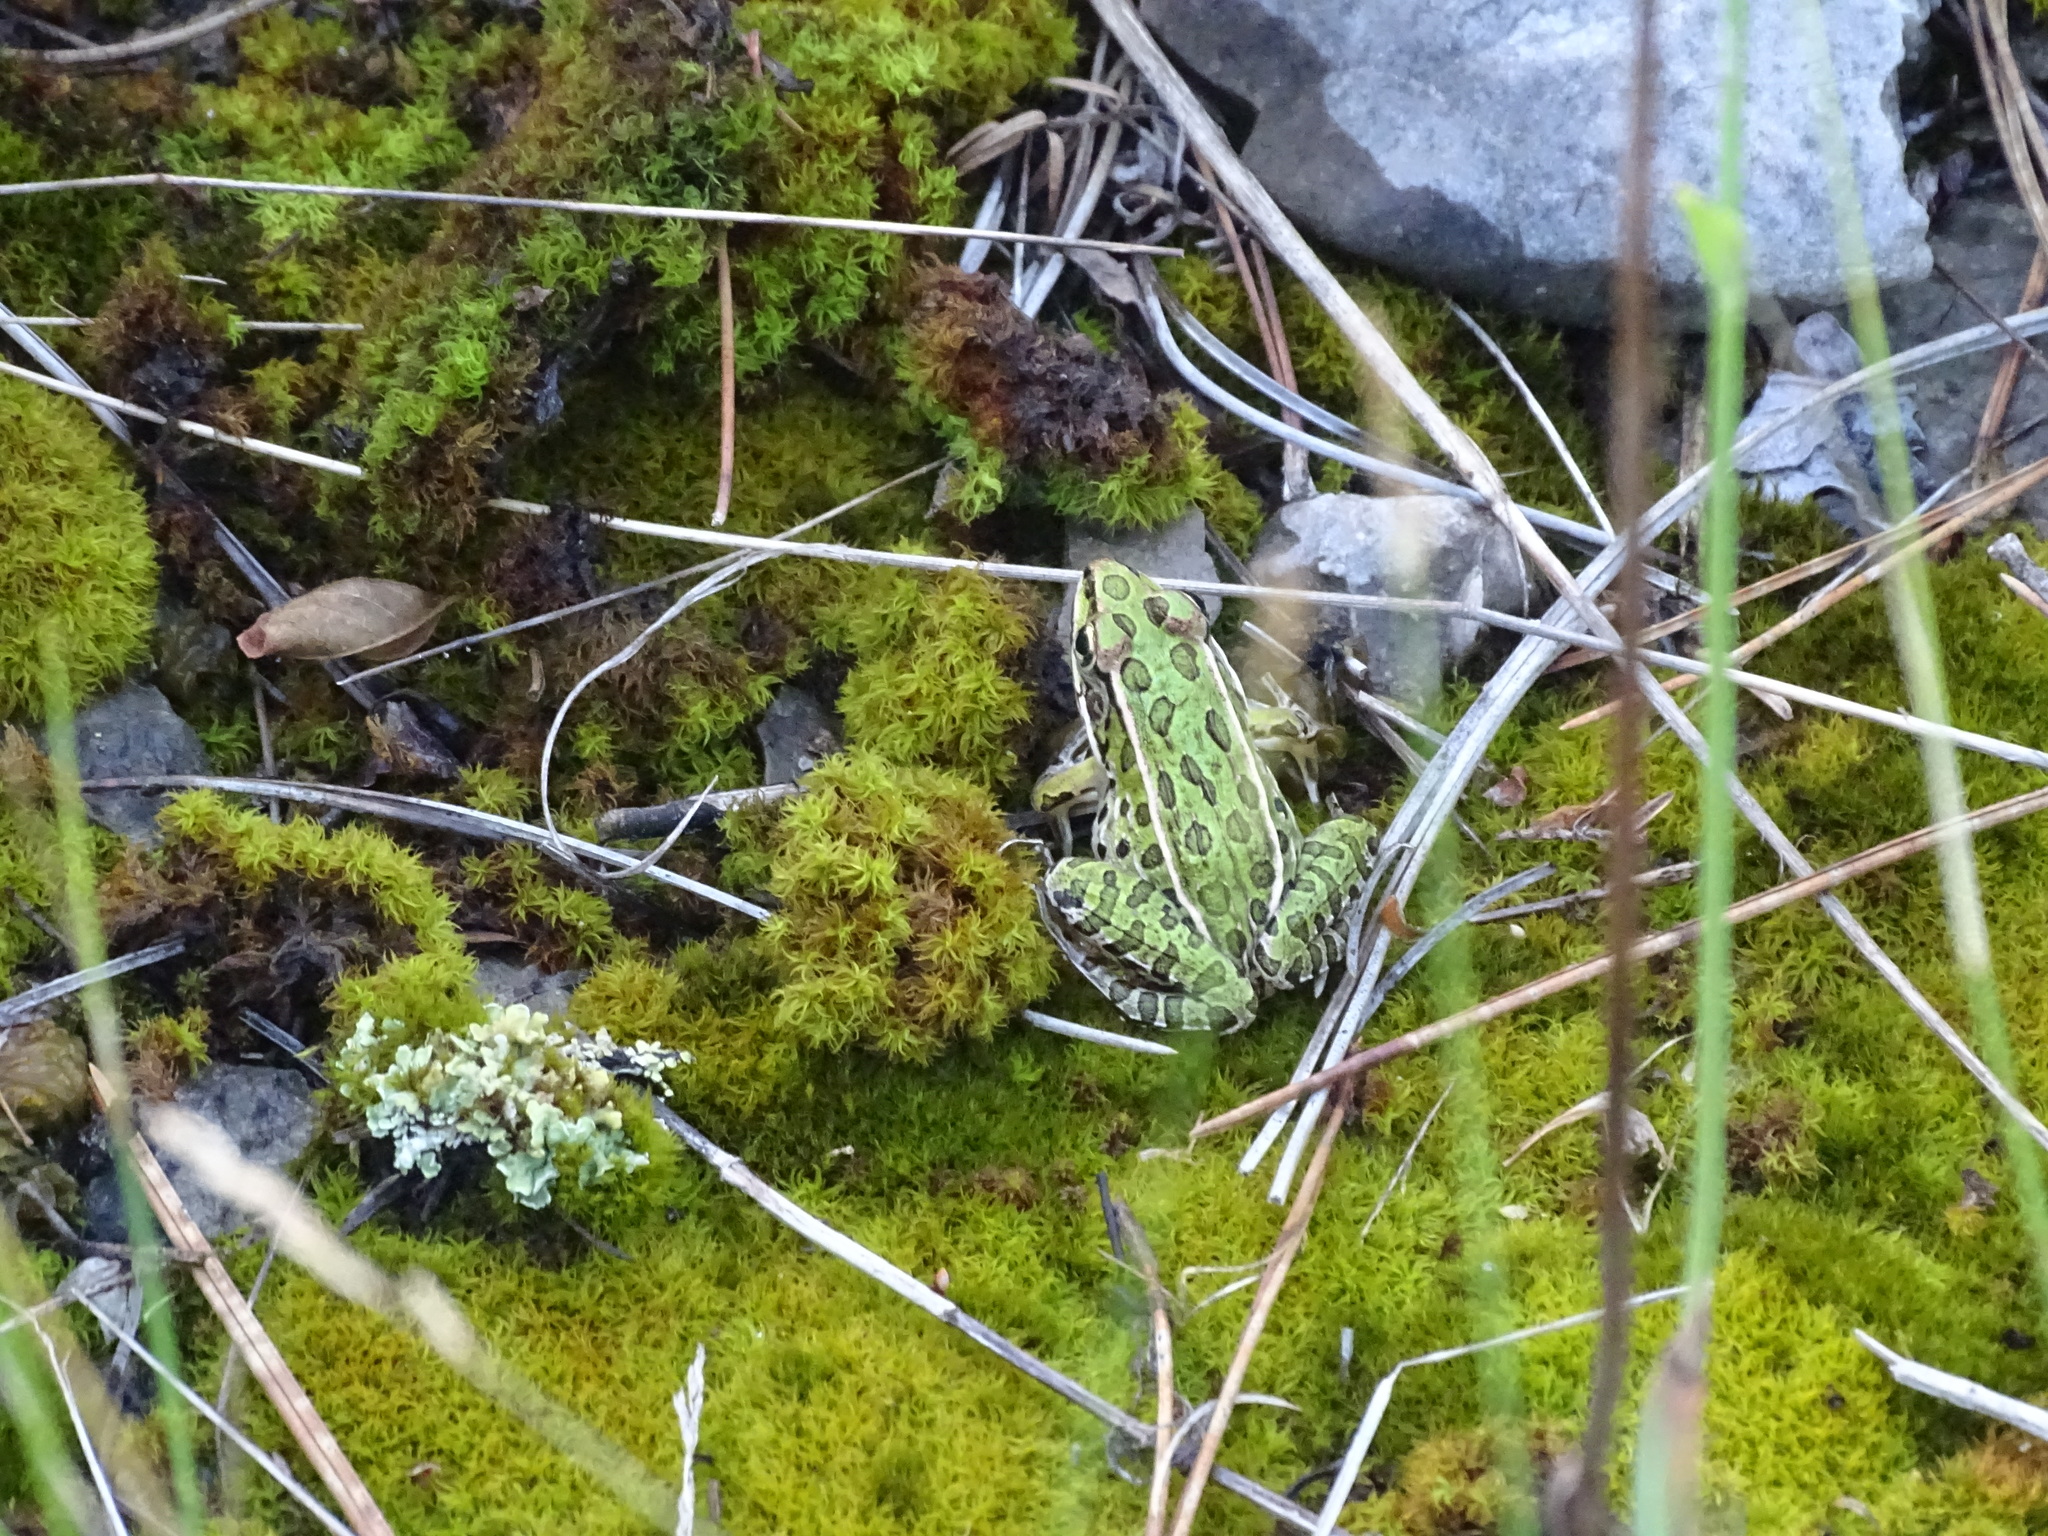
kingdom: Animalia
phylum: Chordata
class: Amphibia
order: Anura
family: Ranidae
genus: Lithobates
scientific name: Lithobates pipiens
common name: Northern leopard frog
